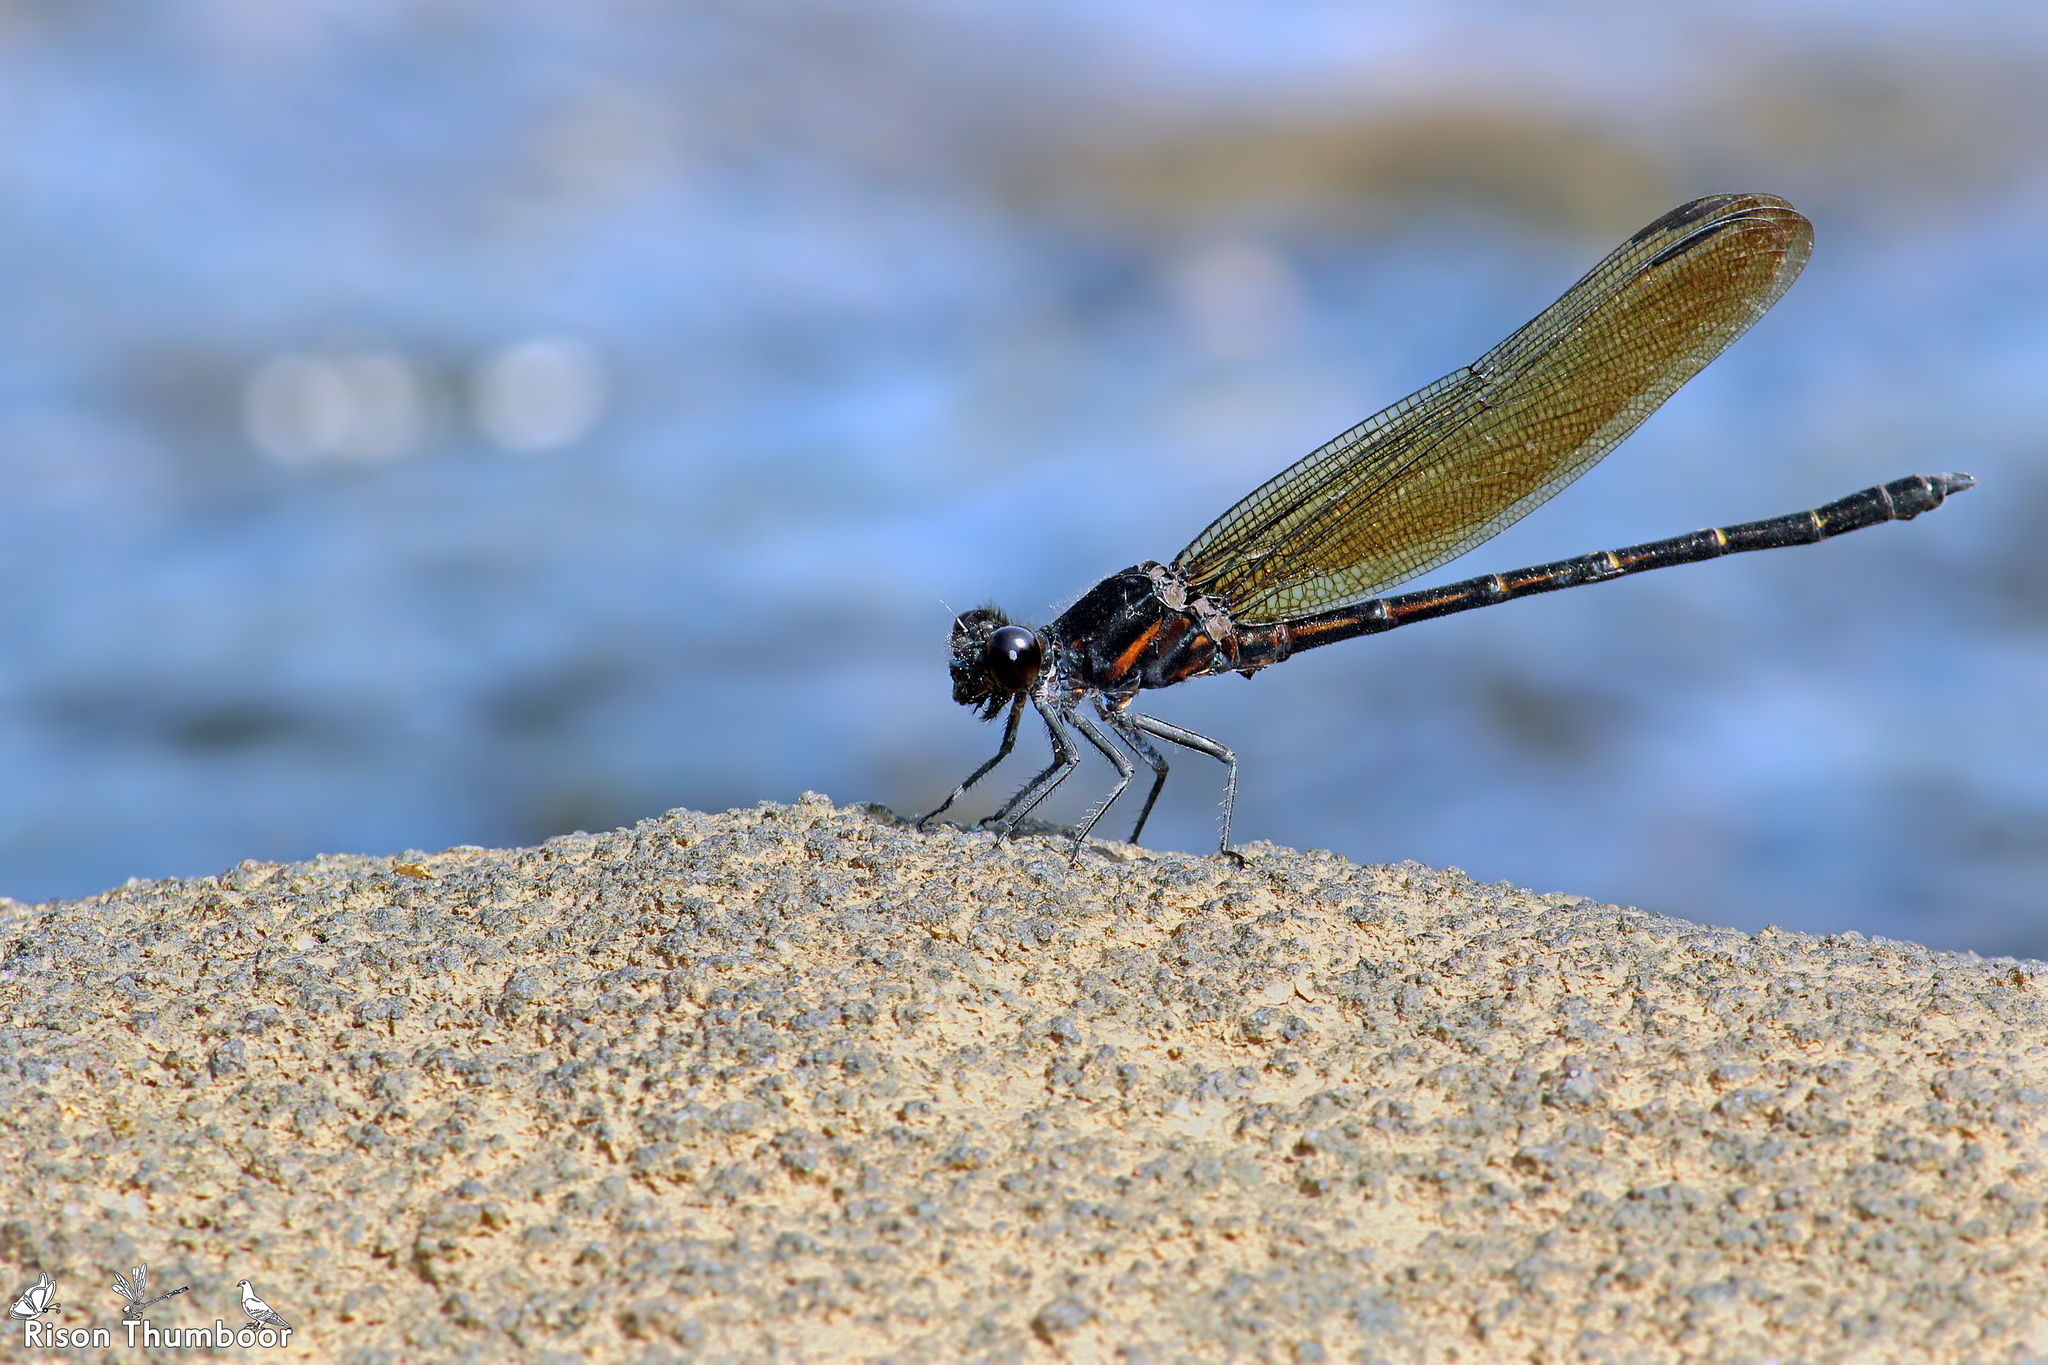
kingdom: Animalia
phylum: Arthropoda
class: Insecta
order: Odonata
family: Euphaeidae
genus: Dysphaea
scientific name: Dysphaea ethela
